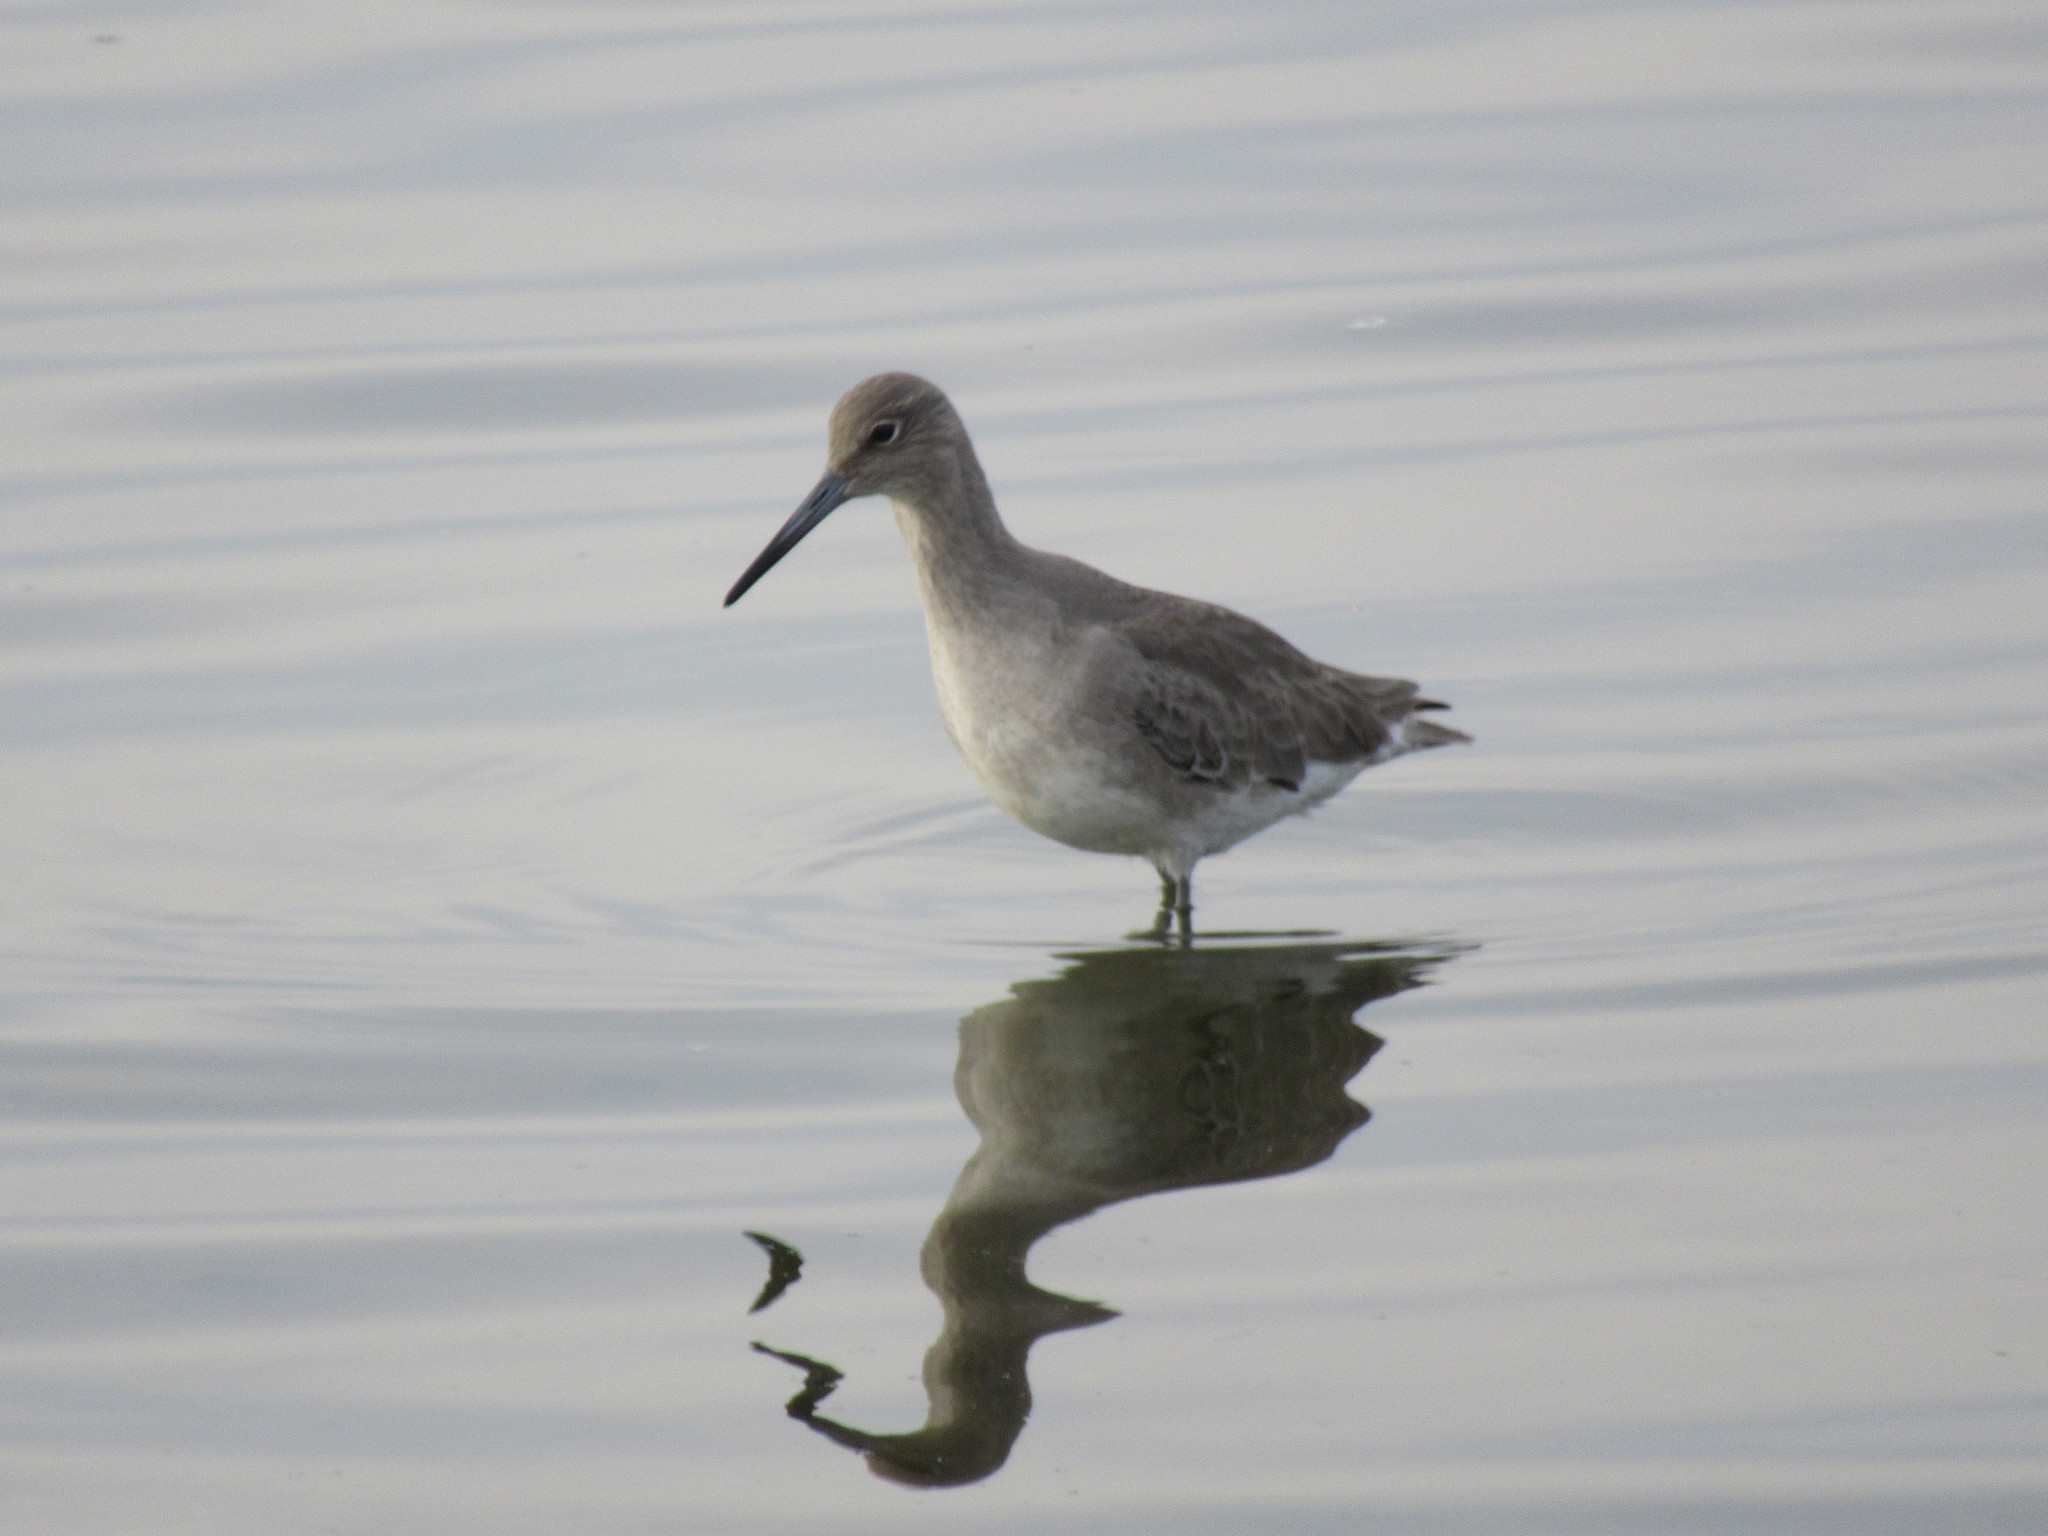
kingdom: Animalia
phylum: Chordata
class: Aves
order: Charadriiformes
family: Scolopacidae
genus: Tringa
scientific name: Tringa semipalmata
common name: Willet
